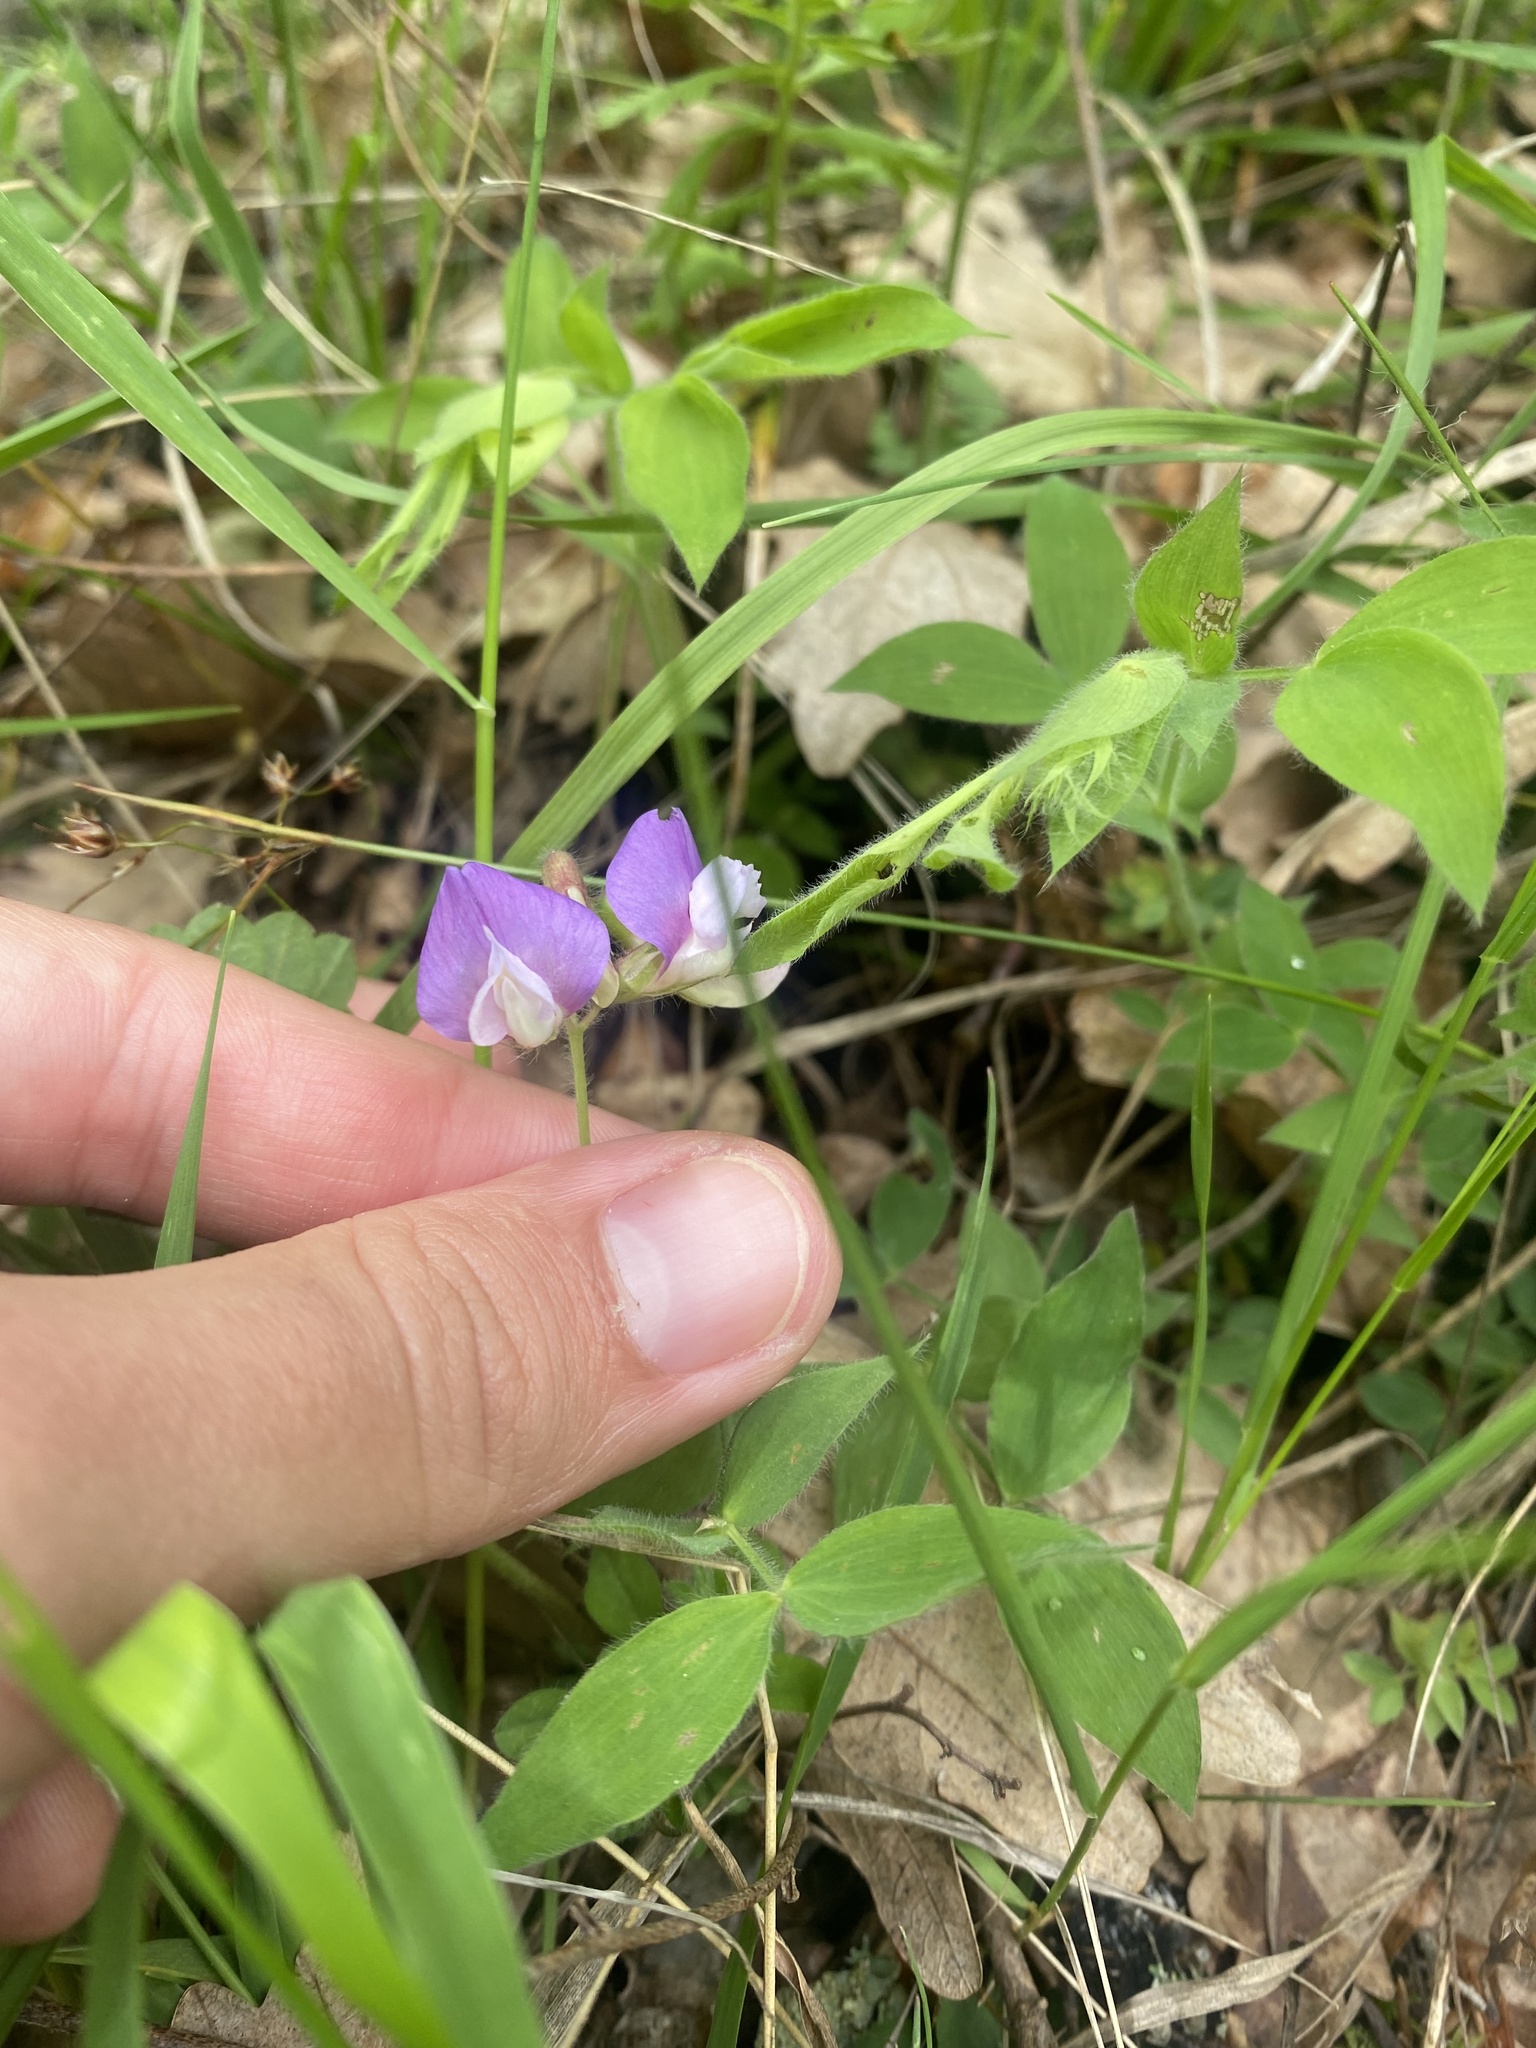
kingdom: Plantae
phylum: Tracheophyta
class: Magnoliopsida
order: Fabales
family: Fabaceae
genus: Lathyrus
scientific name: Lathyrus laxiflorus
